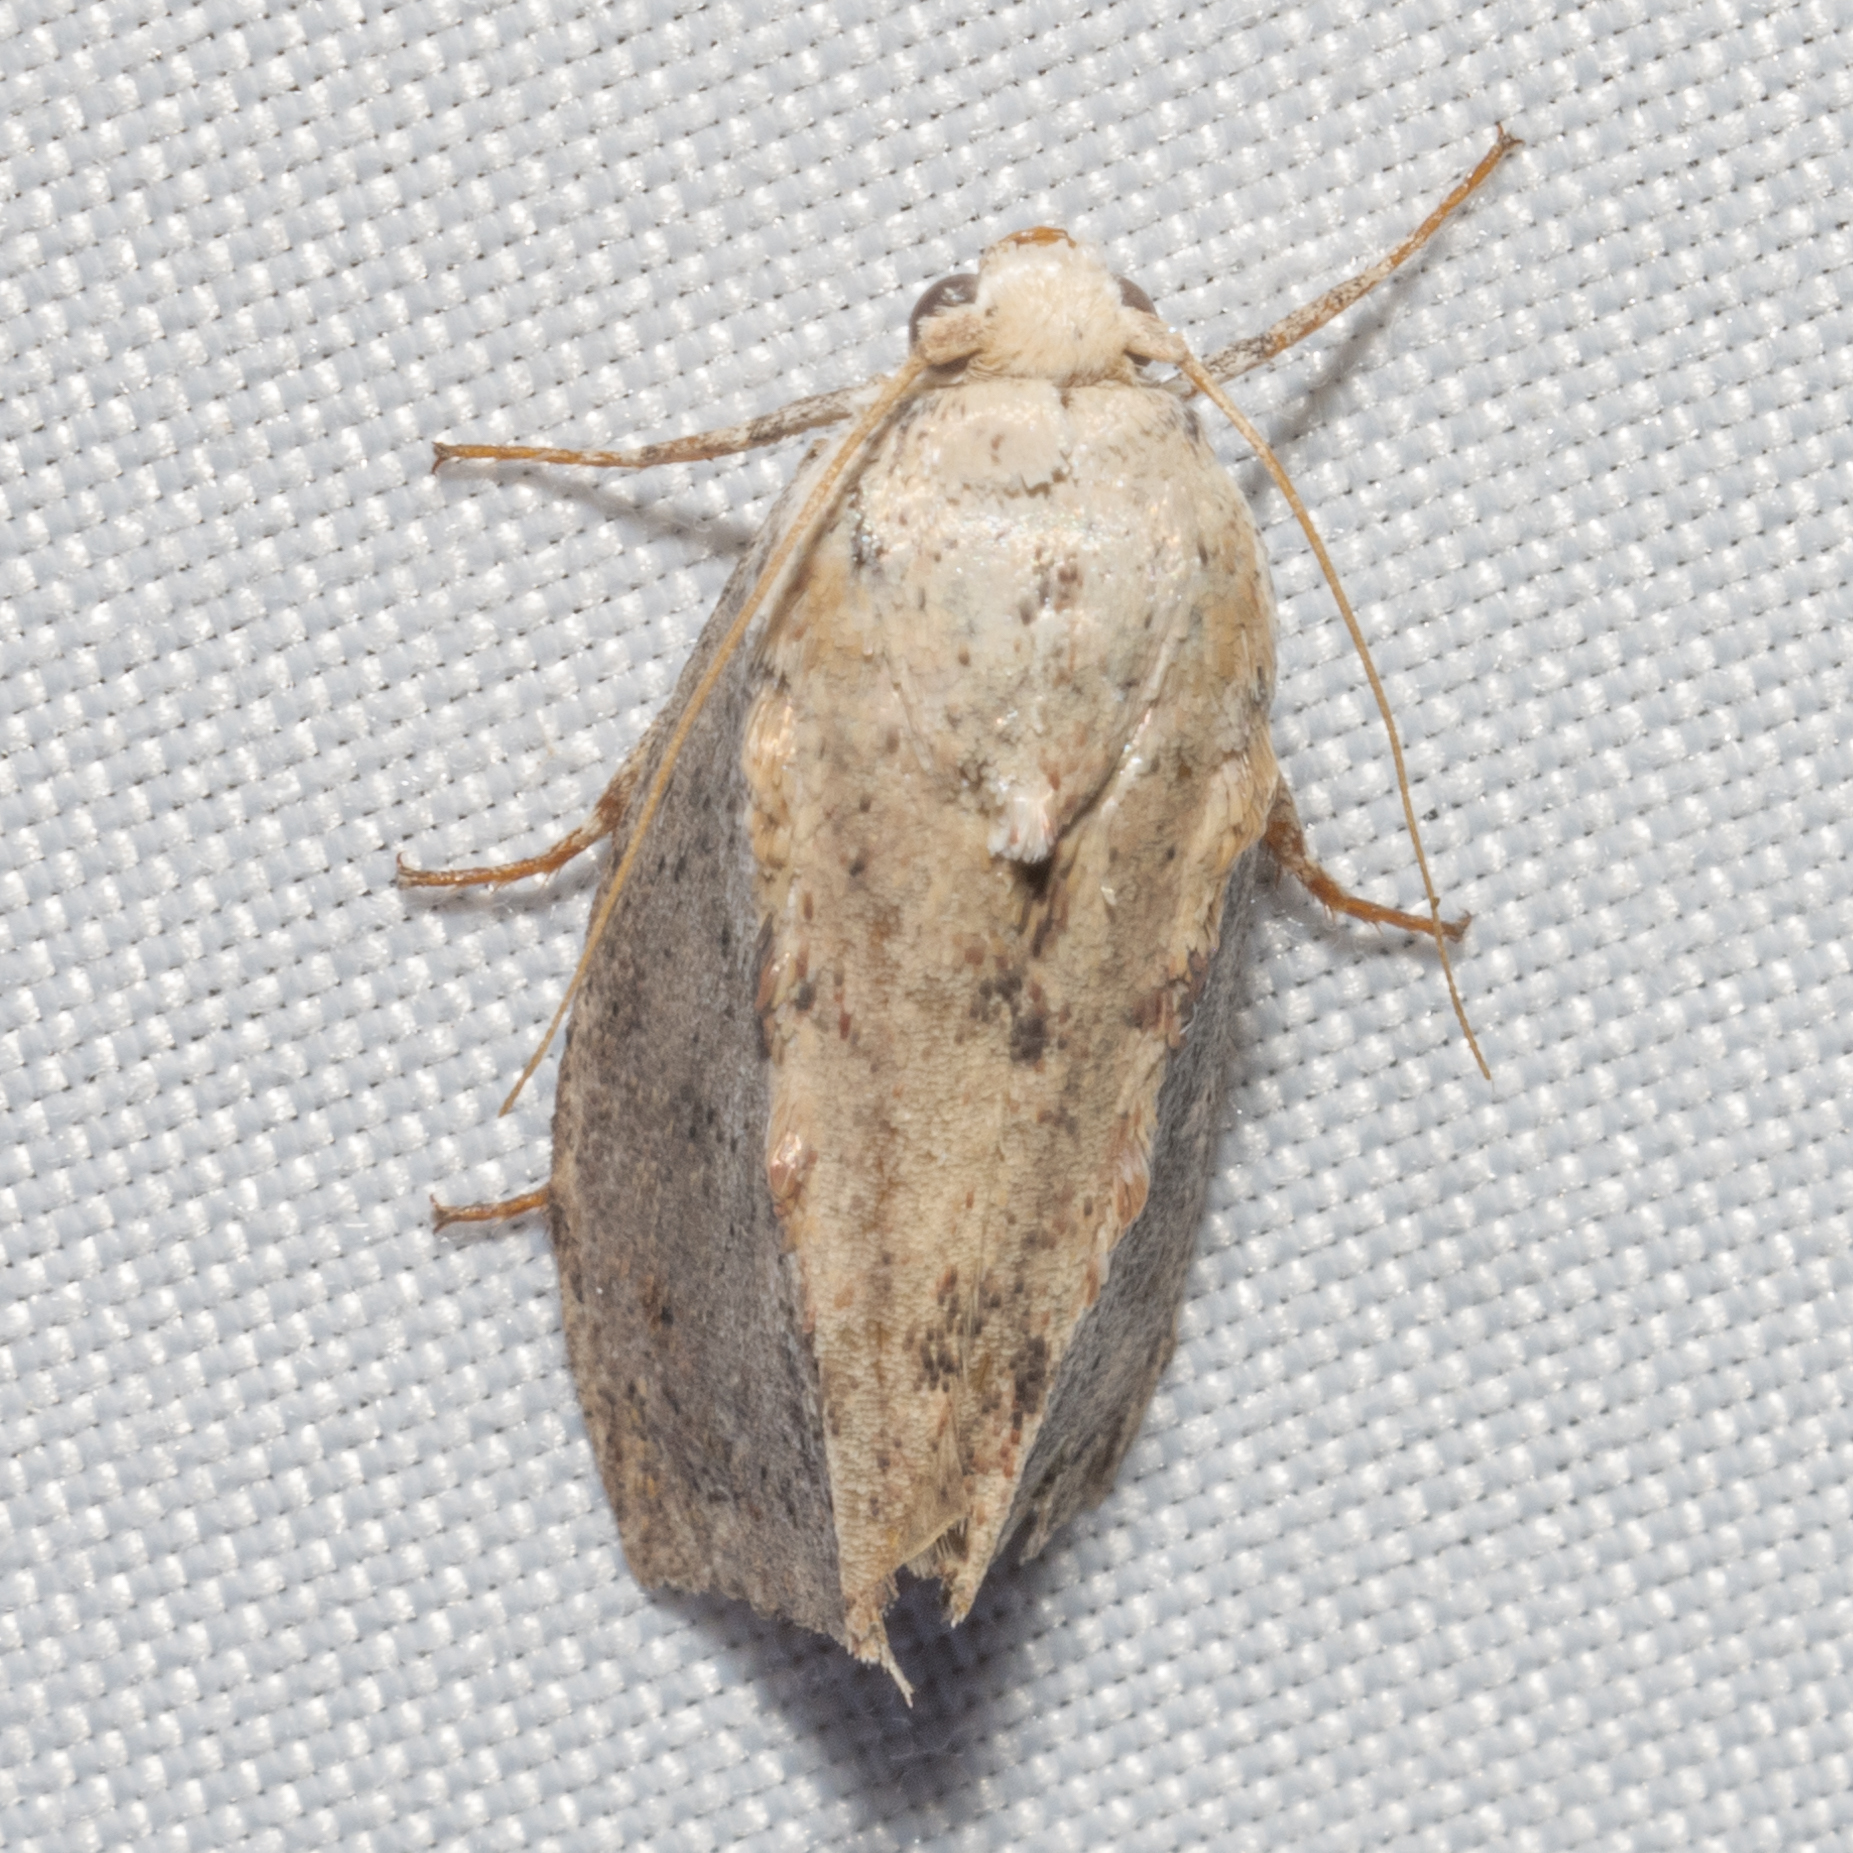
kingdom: Animalia
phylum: Arthropoda
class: Insecta
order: Lepidoptera
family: Pyralidae
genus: Galleria
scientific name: Galleria mellonella
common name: Greater wax moth
